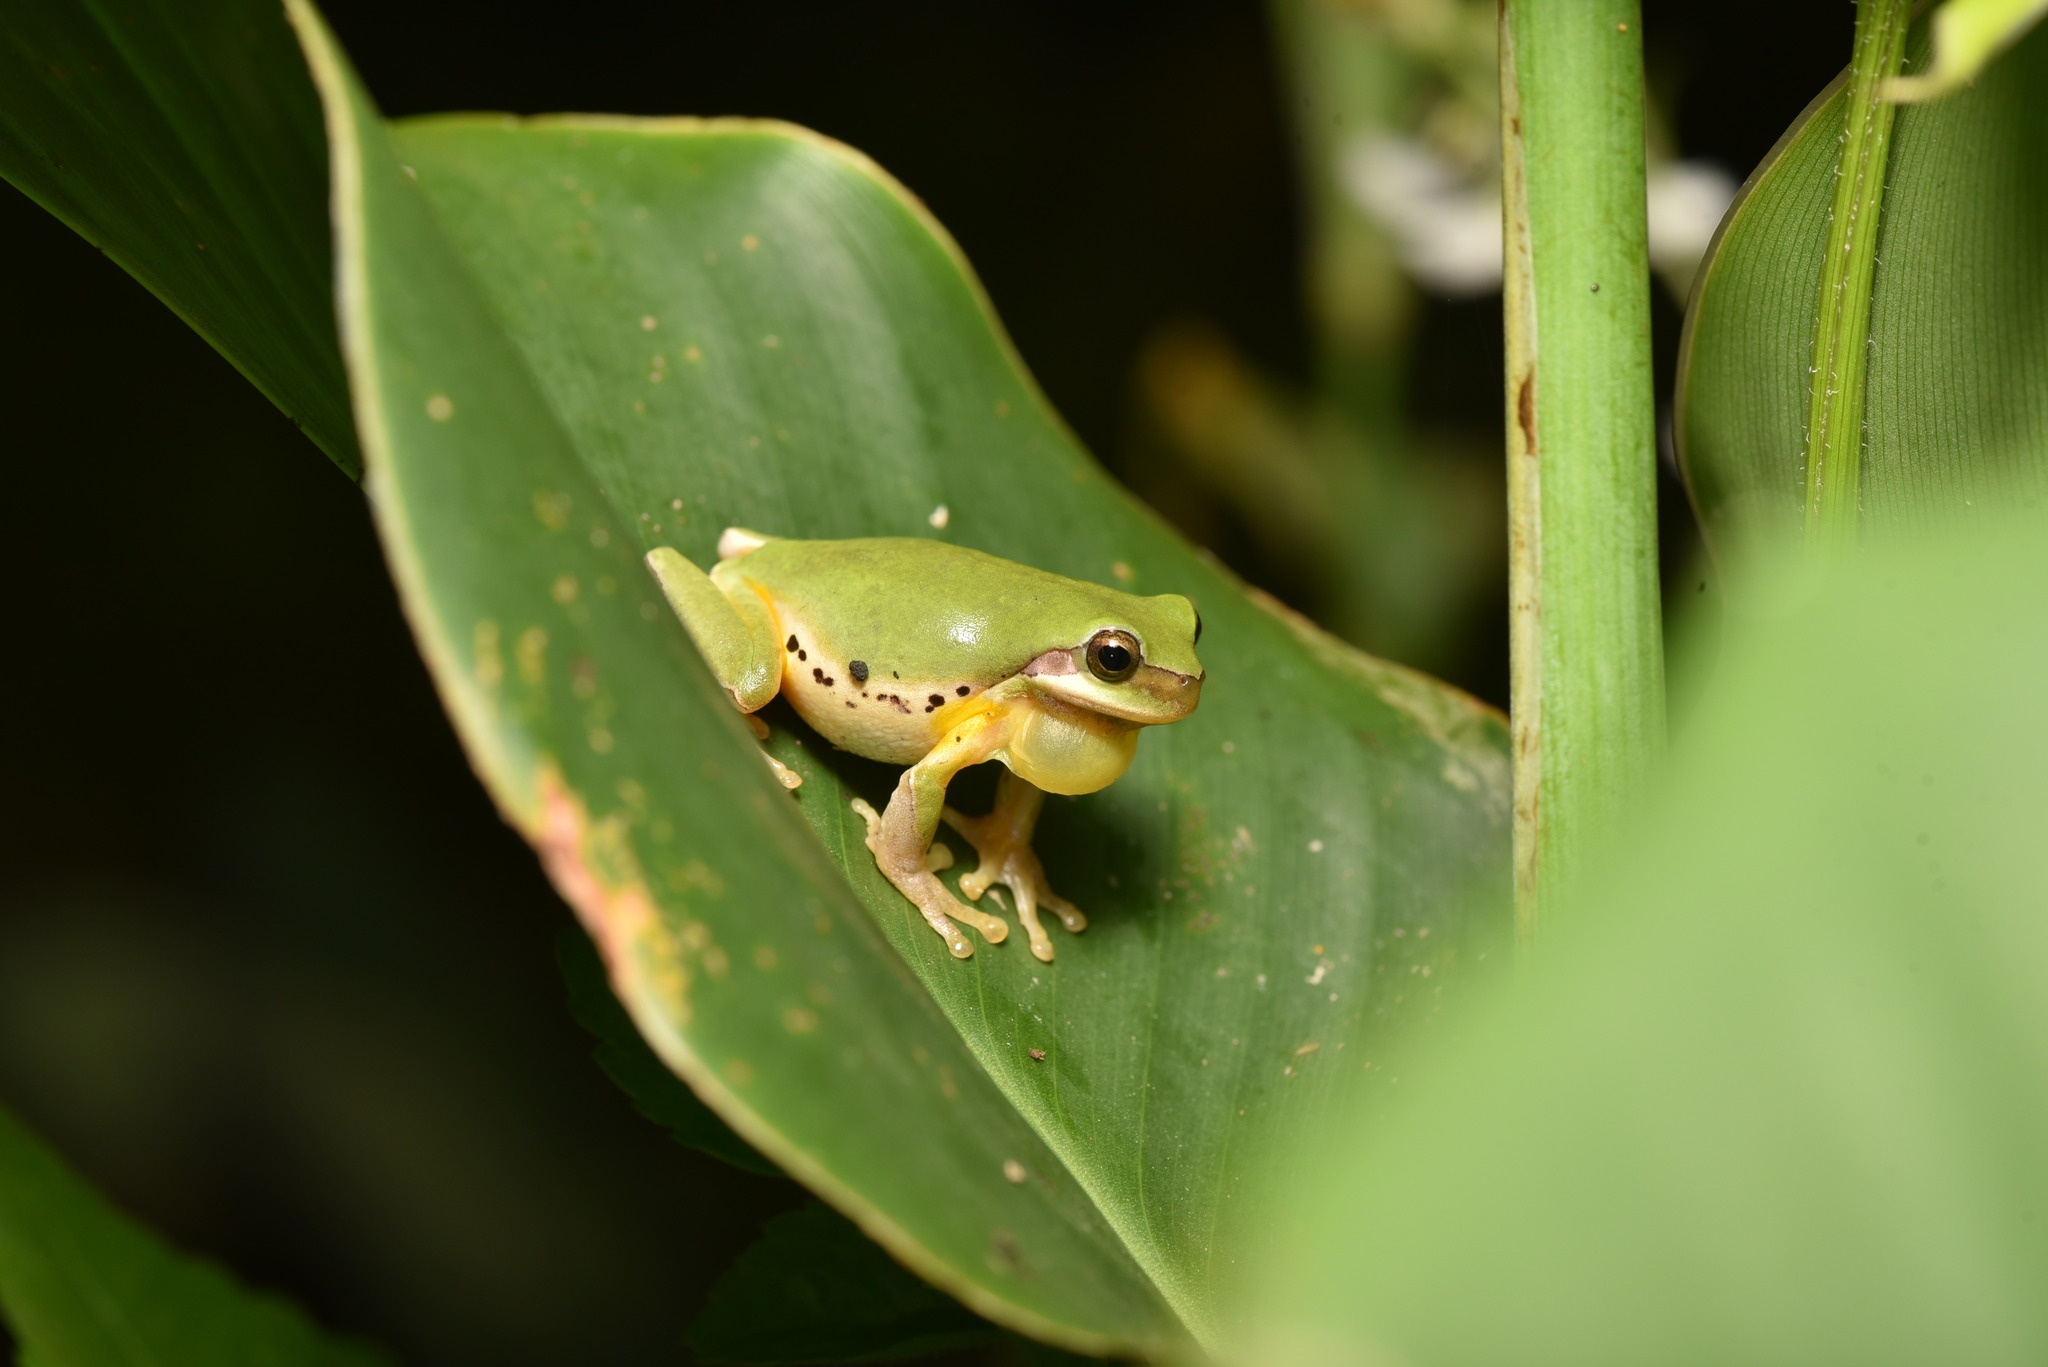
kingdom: Animalia
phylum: Chordata
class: Amphibia
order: Anura
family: Hylidae
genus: Hyla
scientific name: Hyla chinensis
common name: Common chinese treefrog
